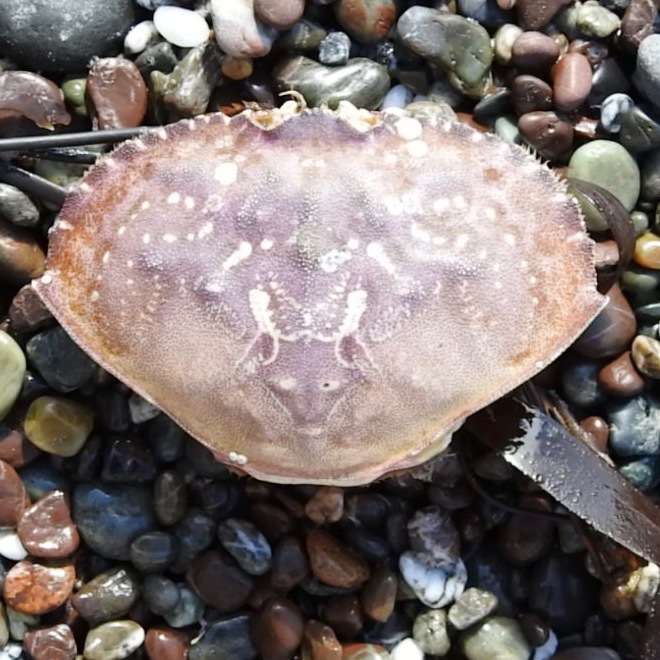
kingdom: Animalia
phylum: Arthropoda
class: Malacostraca
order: Decapoda
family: Cancridae
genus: Metacarcinus
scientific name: Metacarcinus magister
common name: Californian crab
